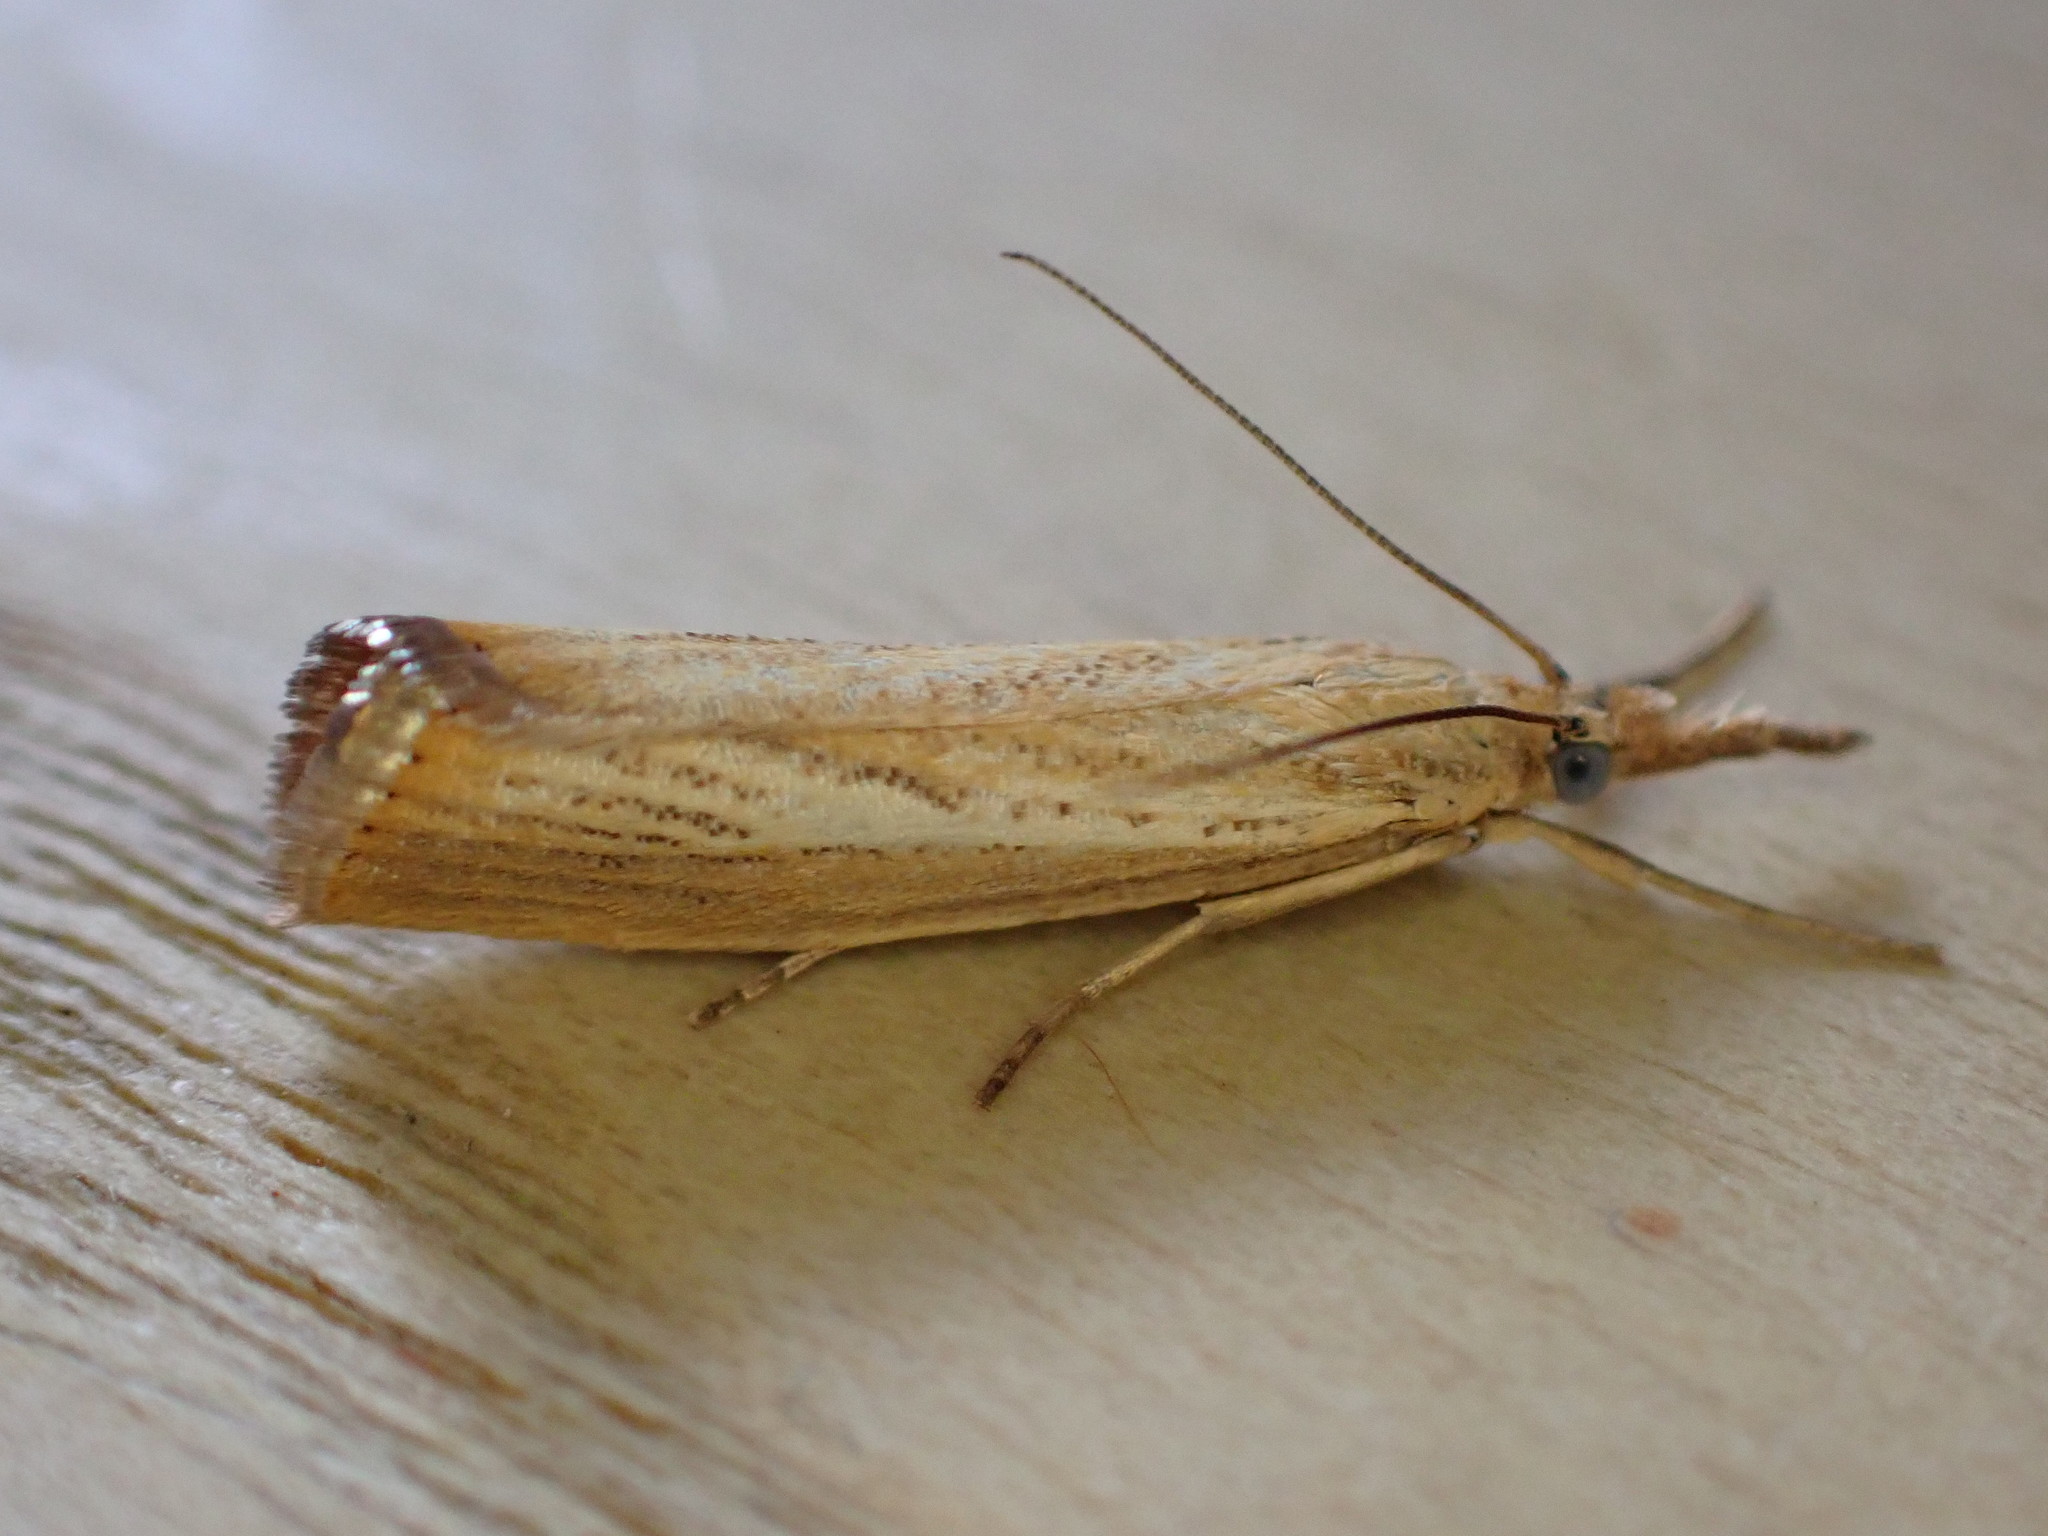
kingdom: Animalia
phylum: Arthropoda
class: Insecta
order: Lepidoptera
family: Crambidae
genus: Agriphila
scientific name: Agriphila straminella
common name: Straw grass-veneer
